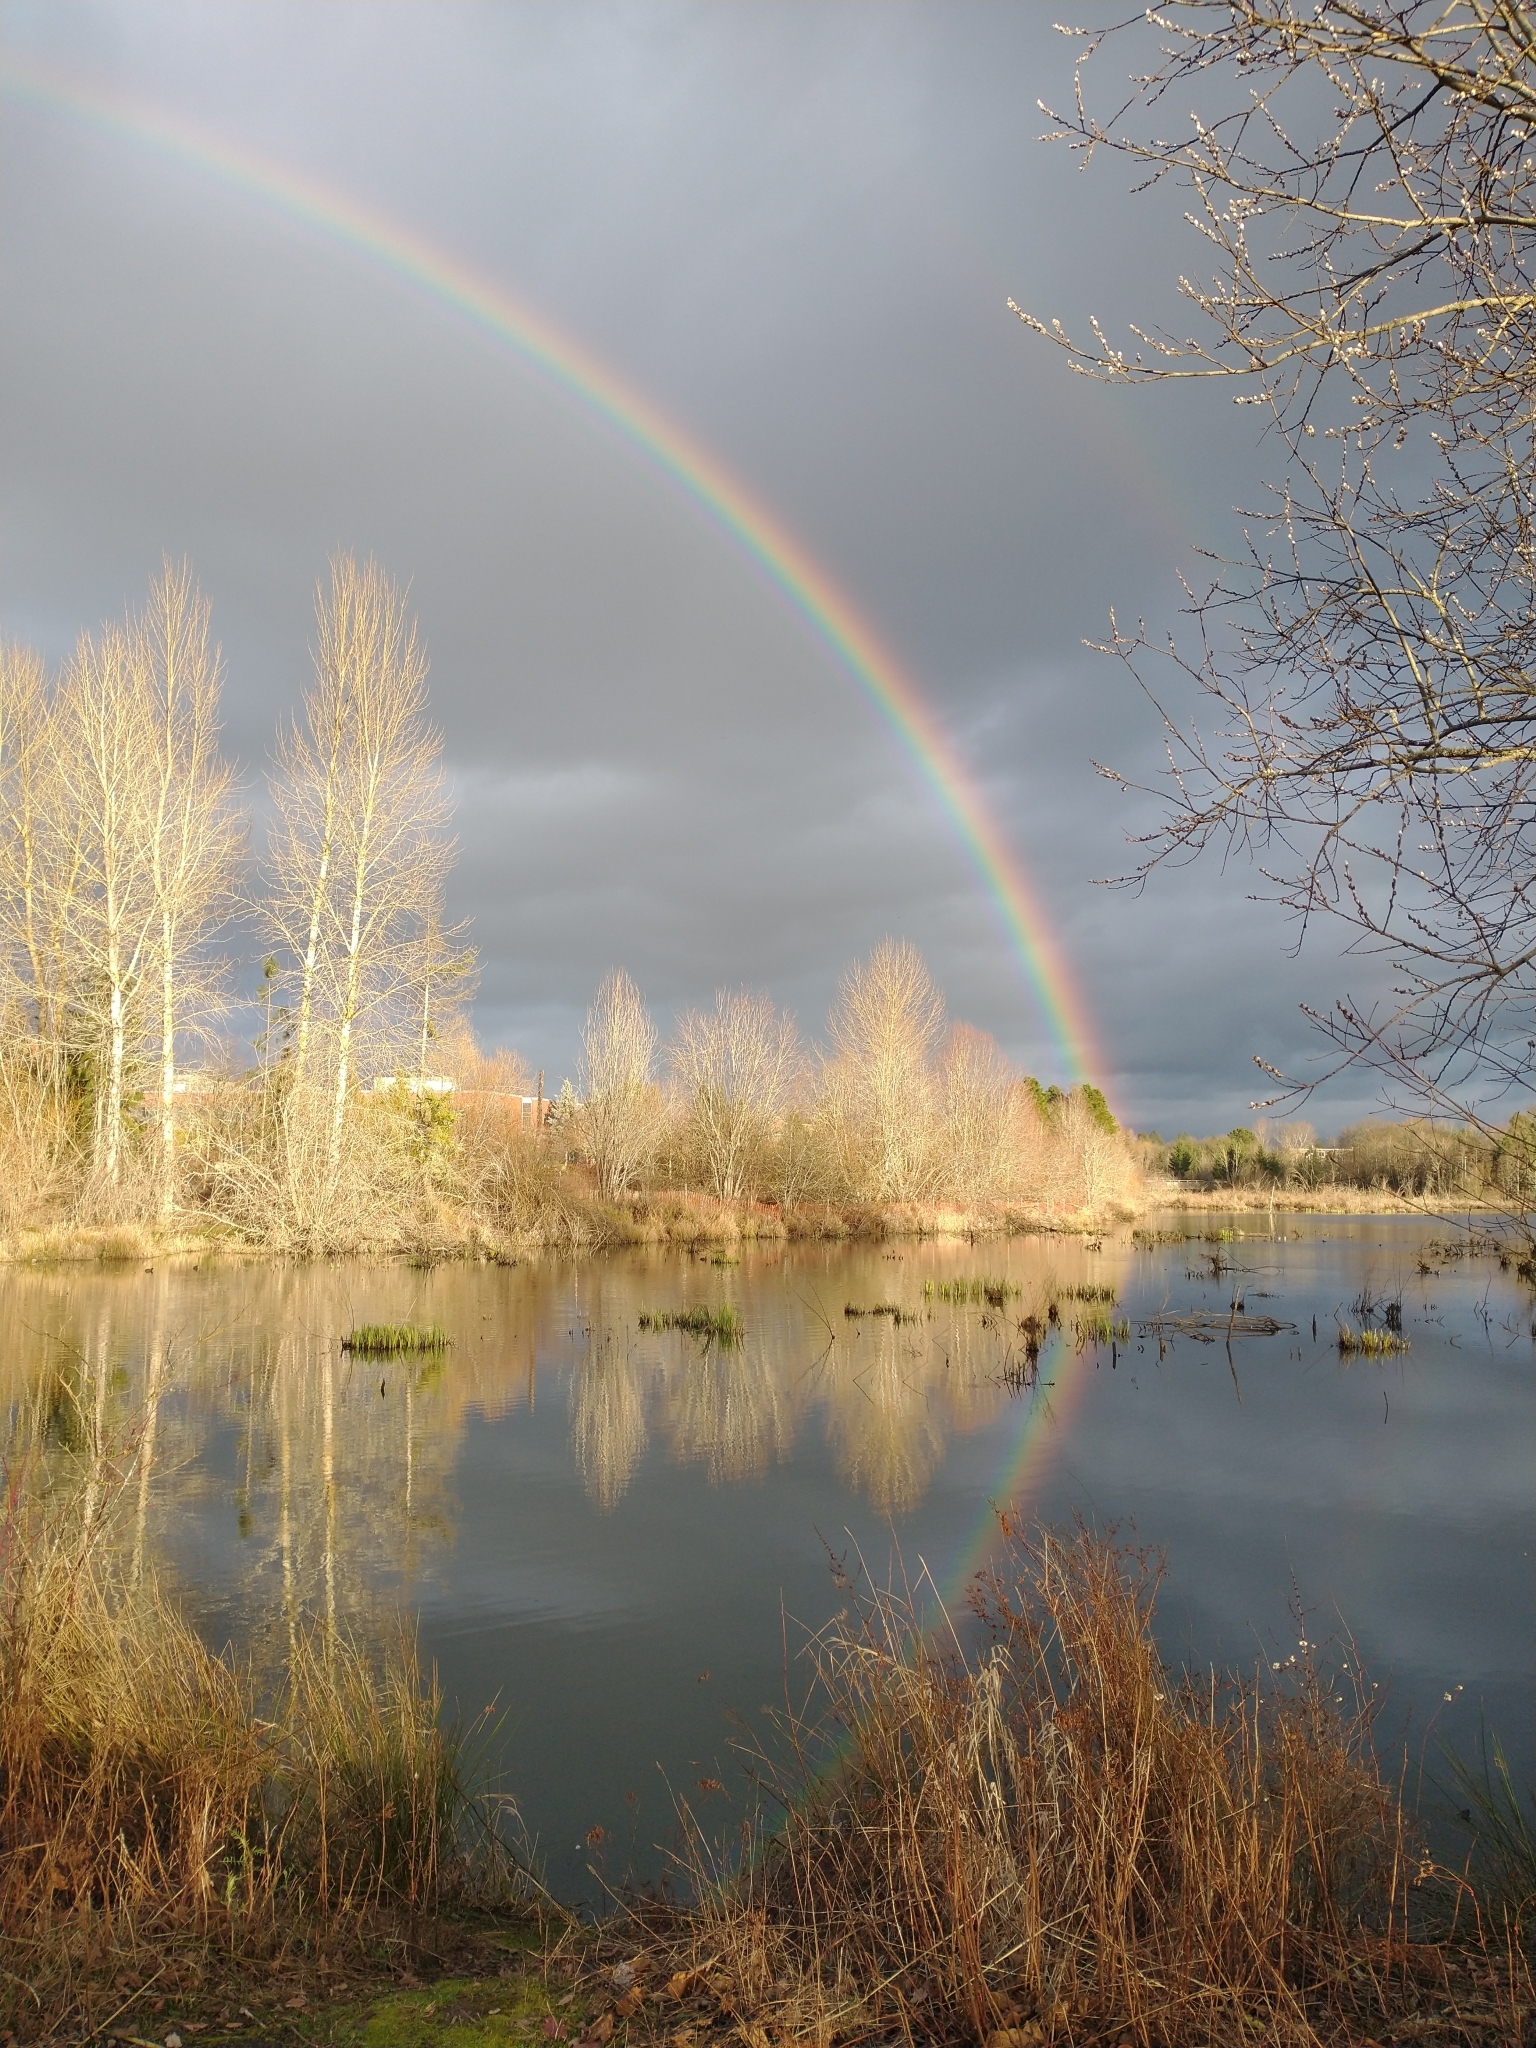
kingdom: Plantae
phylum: Tracheophyta
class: Magnoliopsida
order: Malpighiales
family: Salicaceae
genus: Populus
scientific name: Populus trichocarpa
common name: Black cottonwood
